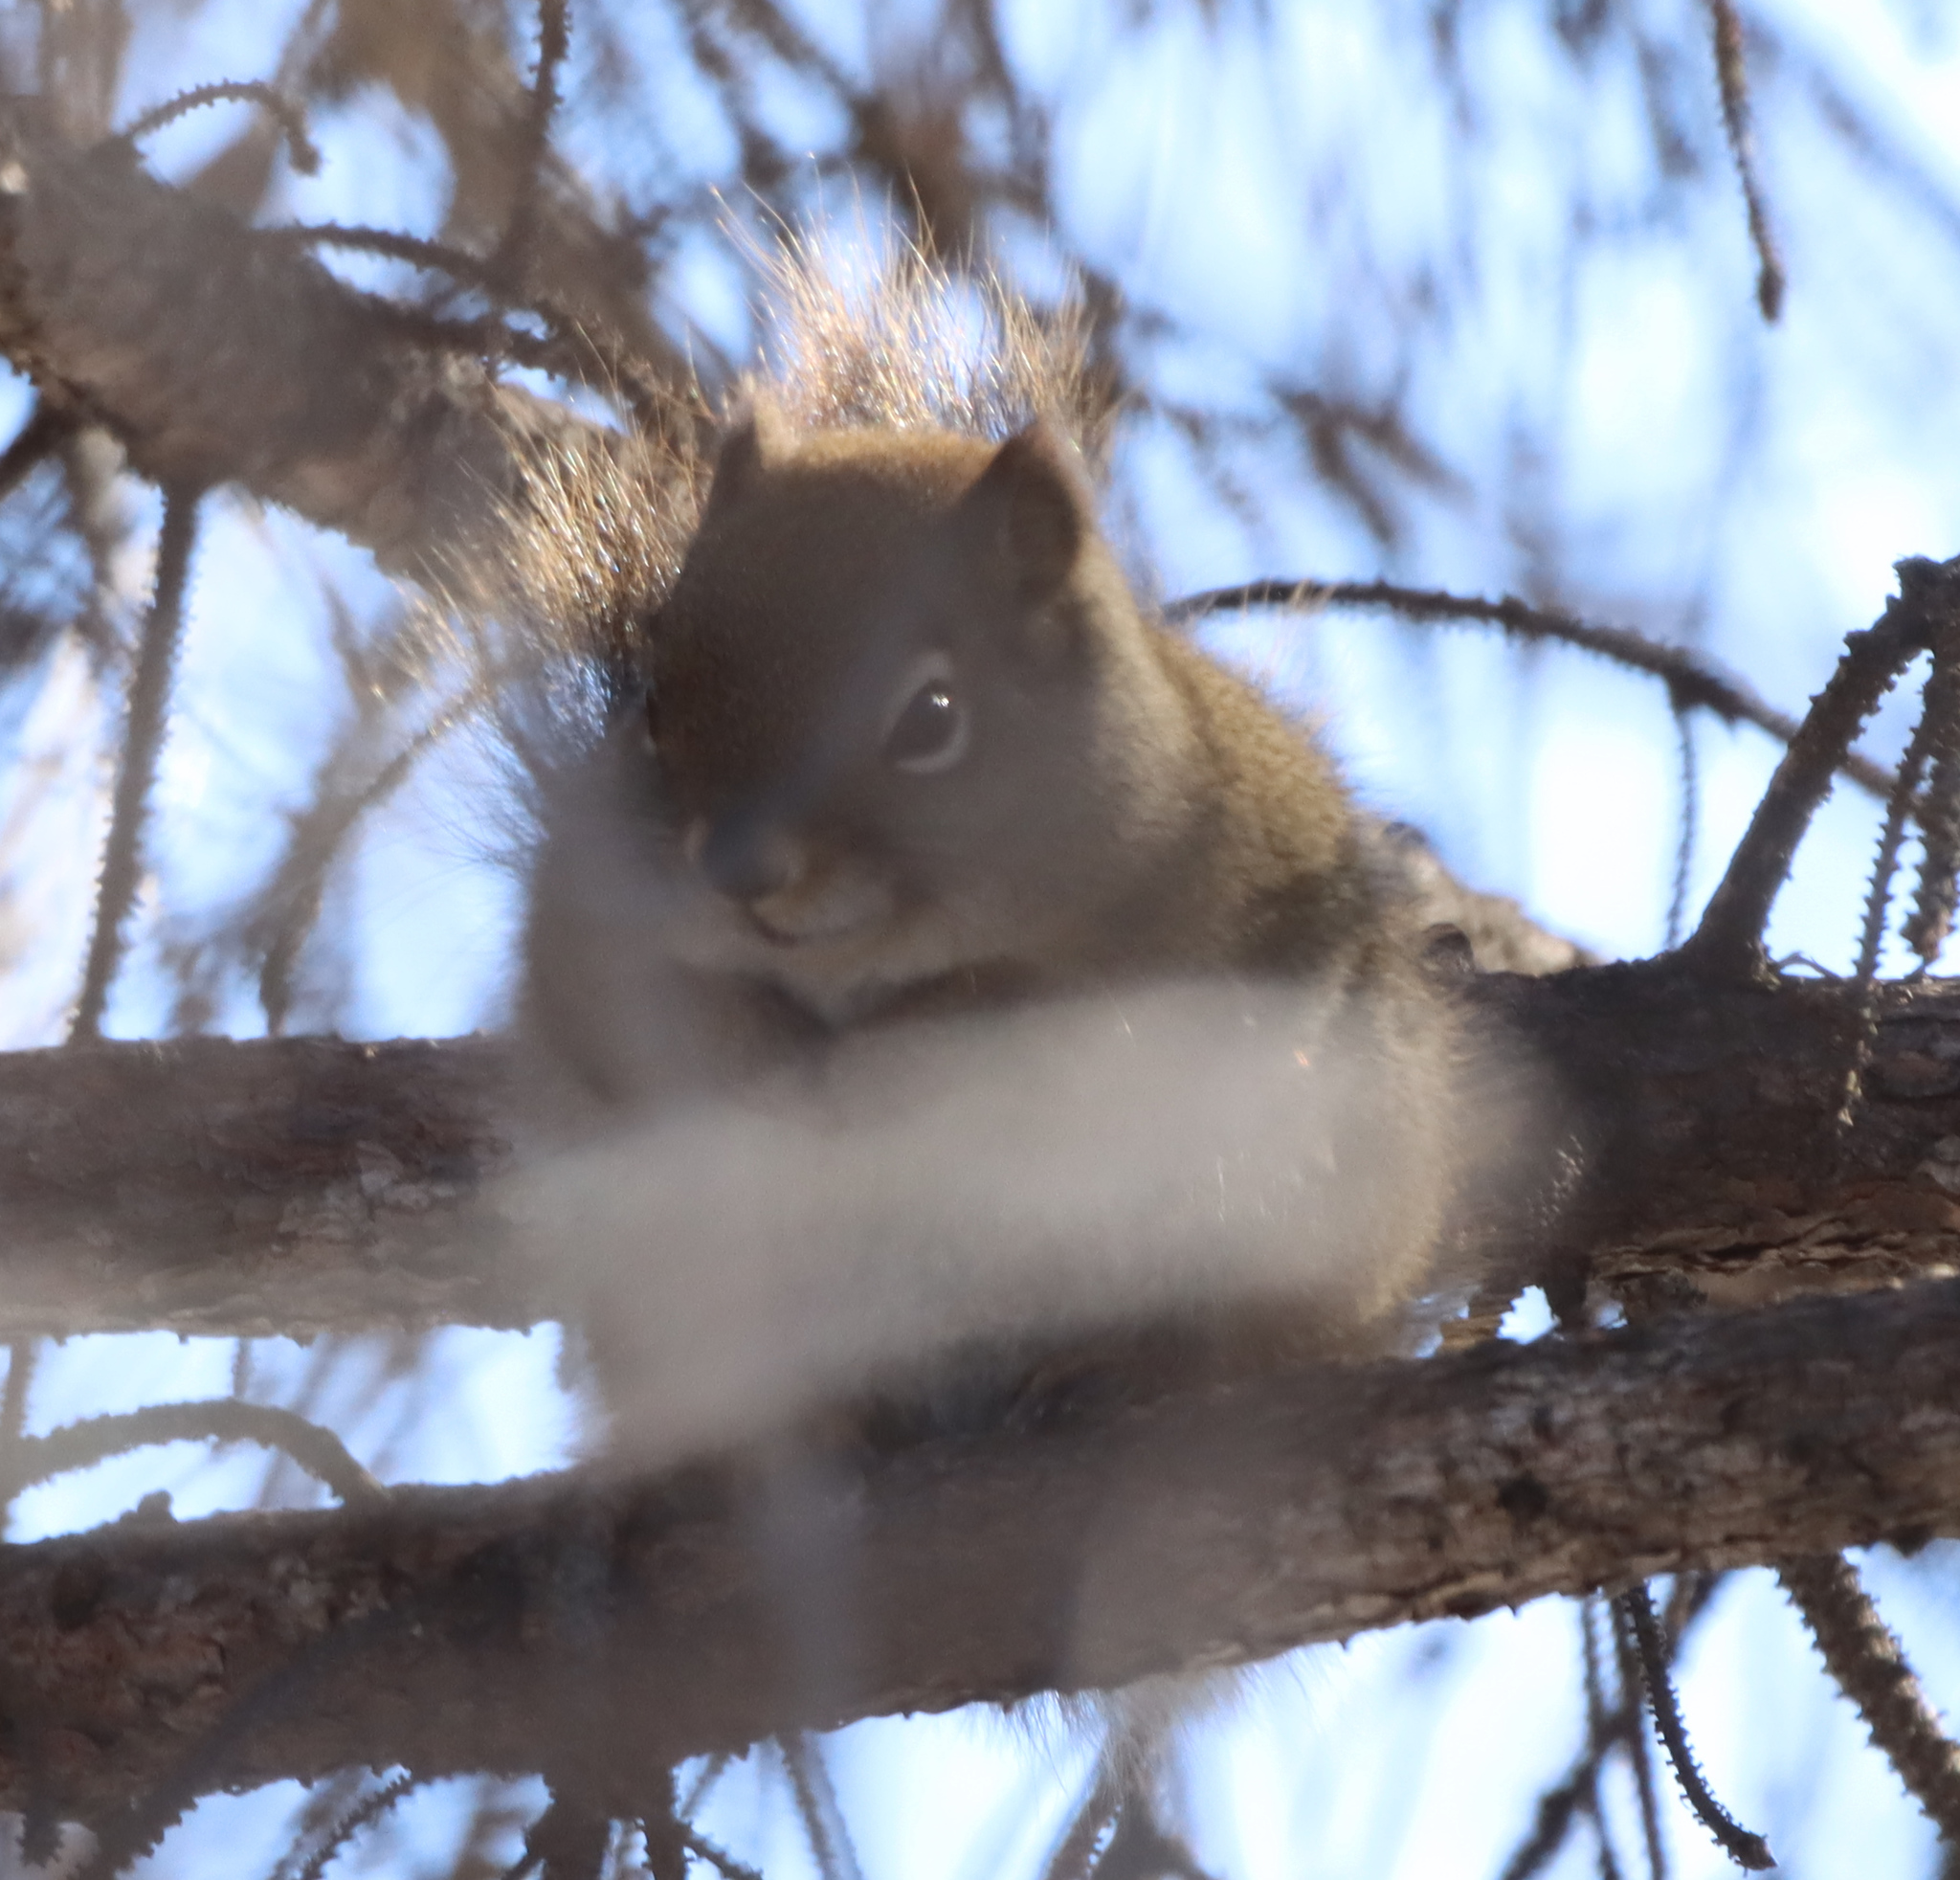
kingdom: Animalia
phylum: Chordata
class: Mammalia
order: Rodentia
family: Sciuridae
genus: Tamiasciurus
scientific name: Tamiasciurus hudsonicus
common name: Red squirrel
